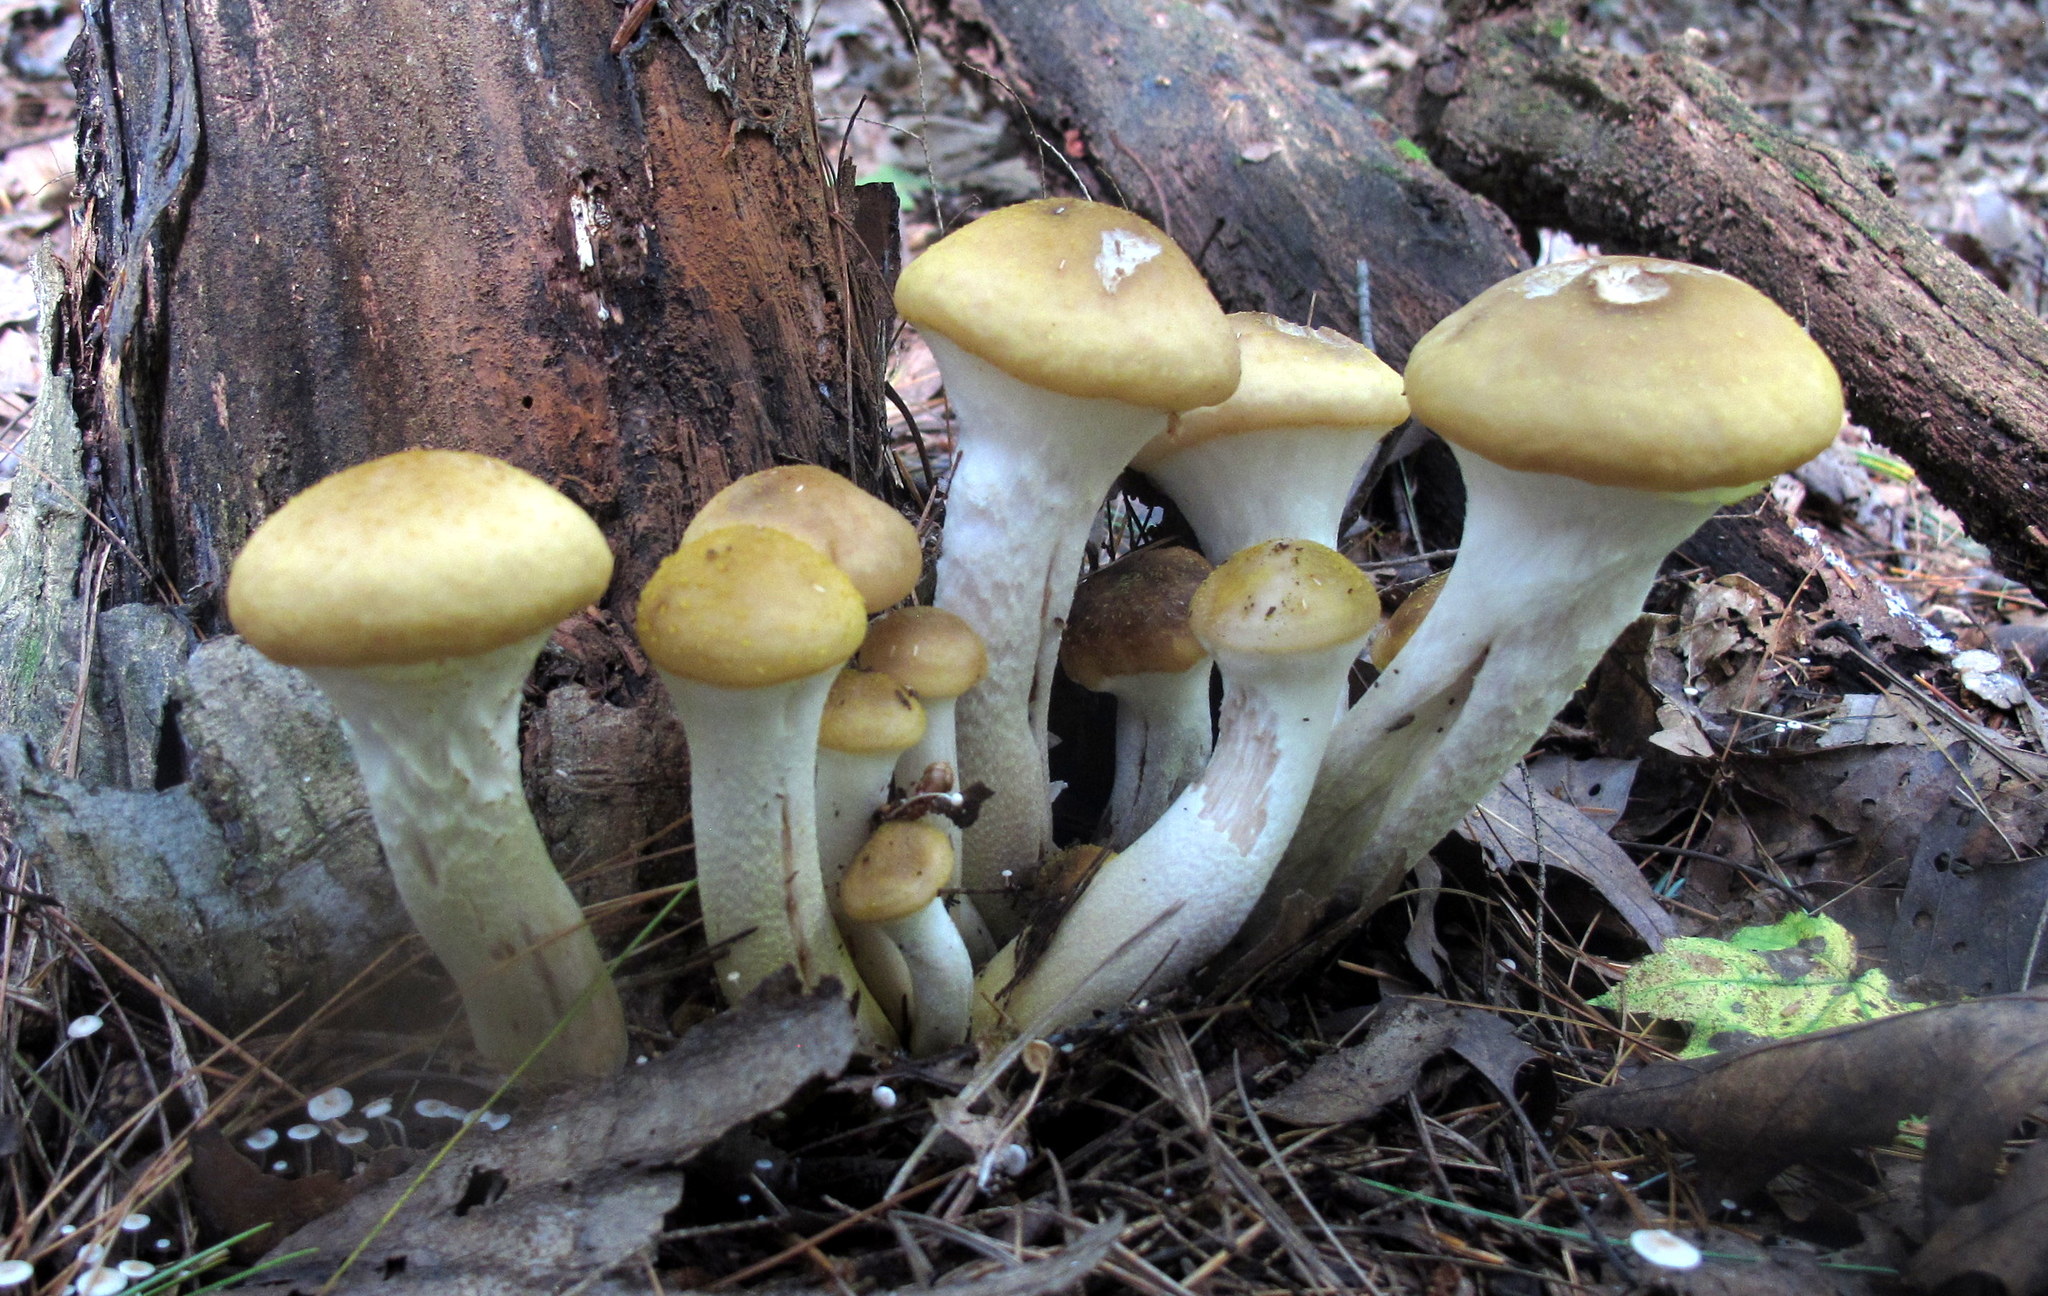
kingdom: Fungi
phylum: Basidiomycota
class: Agaricomycetes
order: Agaricales
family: Physalacriaceae
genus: Armillaria
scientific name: Armillaria mellea
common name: Honey fungus
